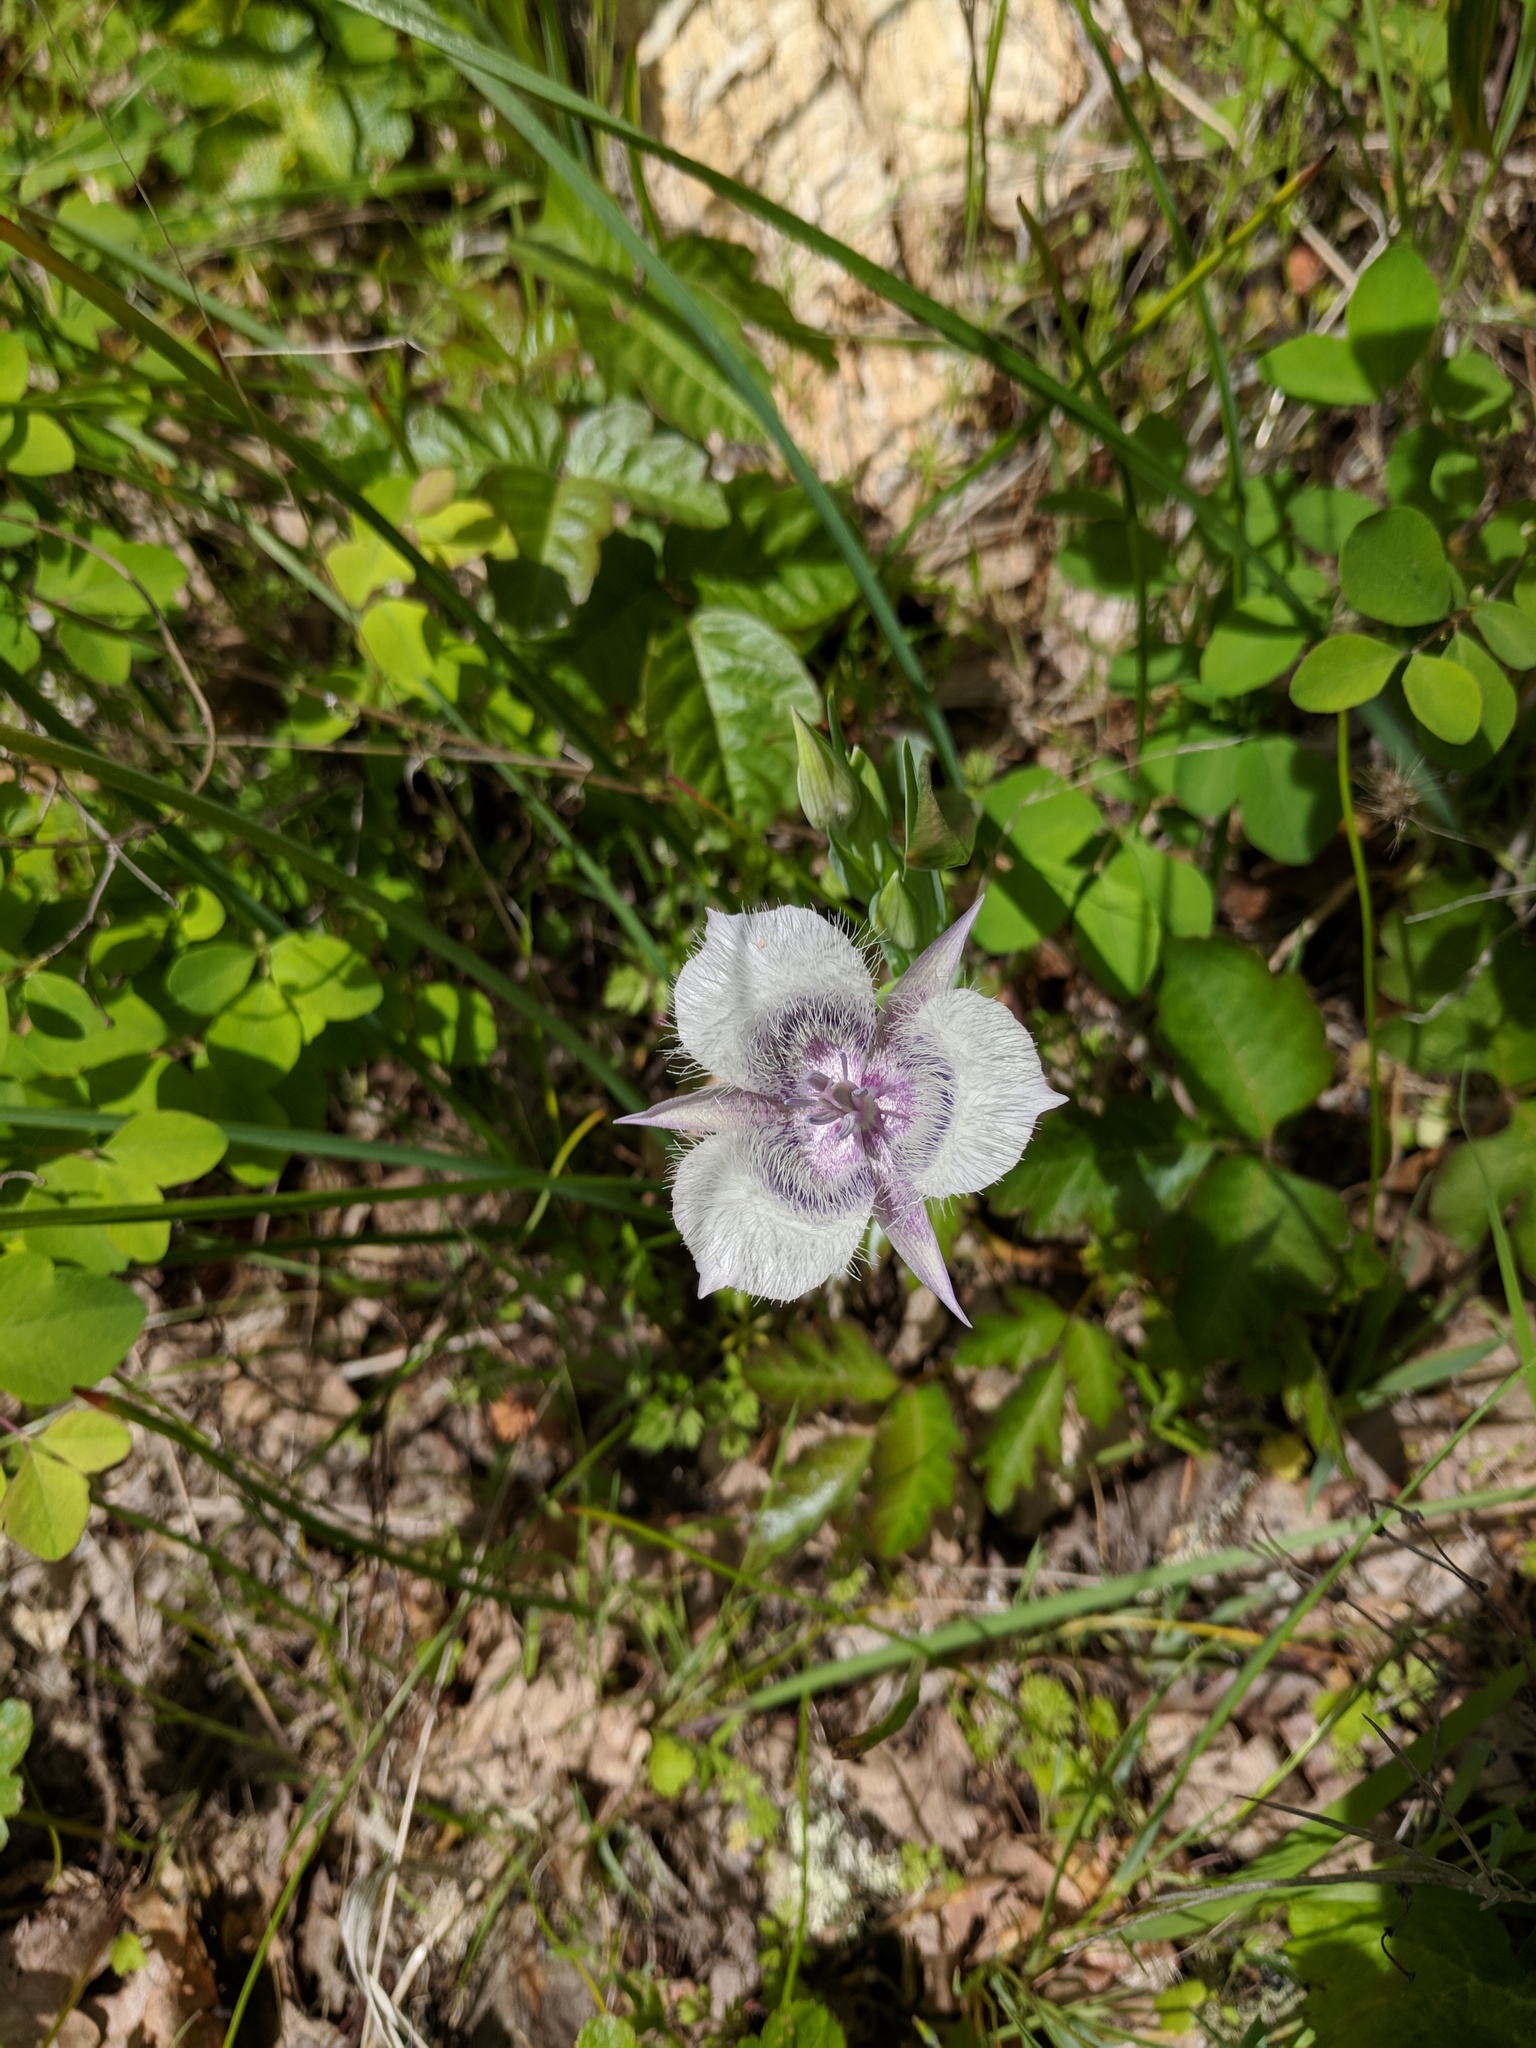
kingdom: Plantae
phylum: Tracheophyta
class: Liliopsida
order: Liliales
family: Liliaceae
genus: Calochortus
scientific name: Calochortus tolmiei
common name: Pussy-ears
